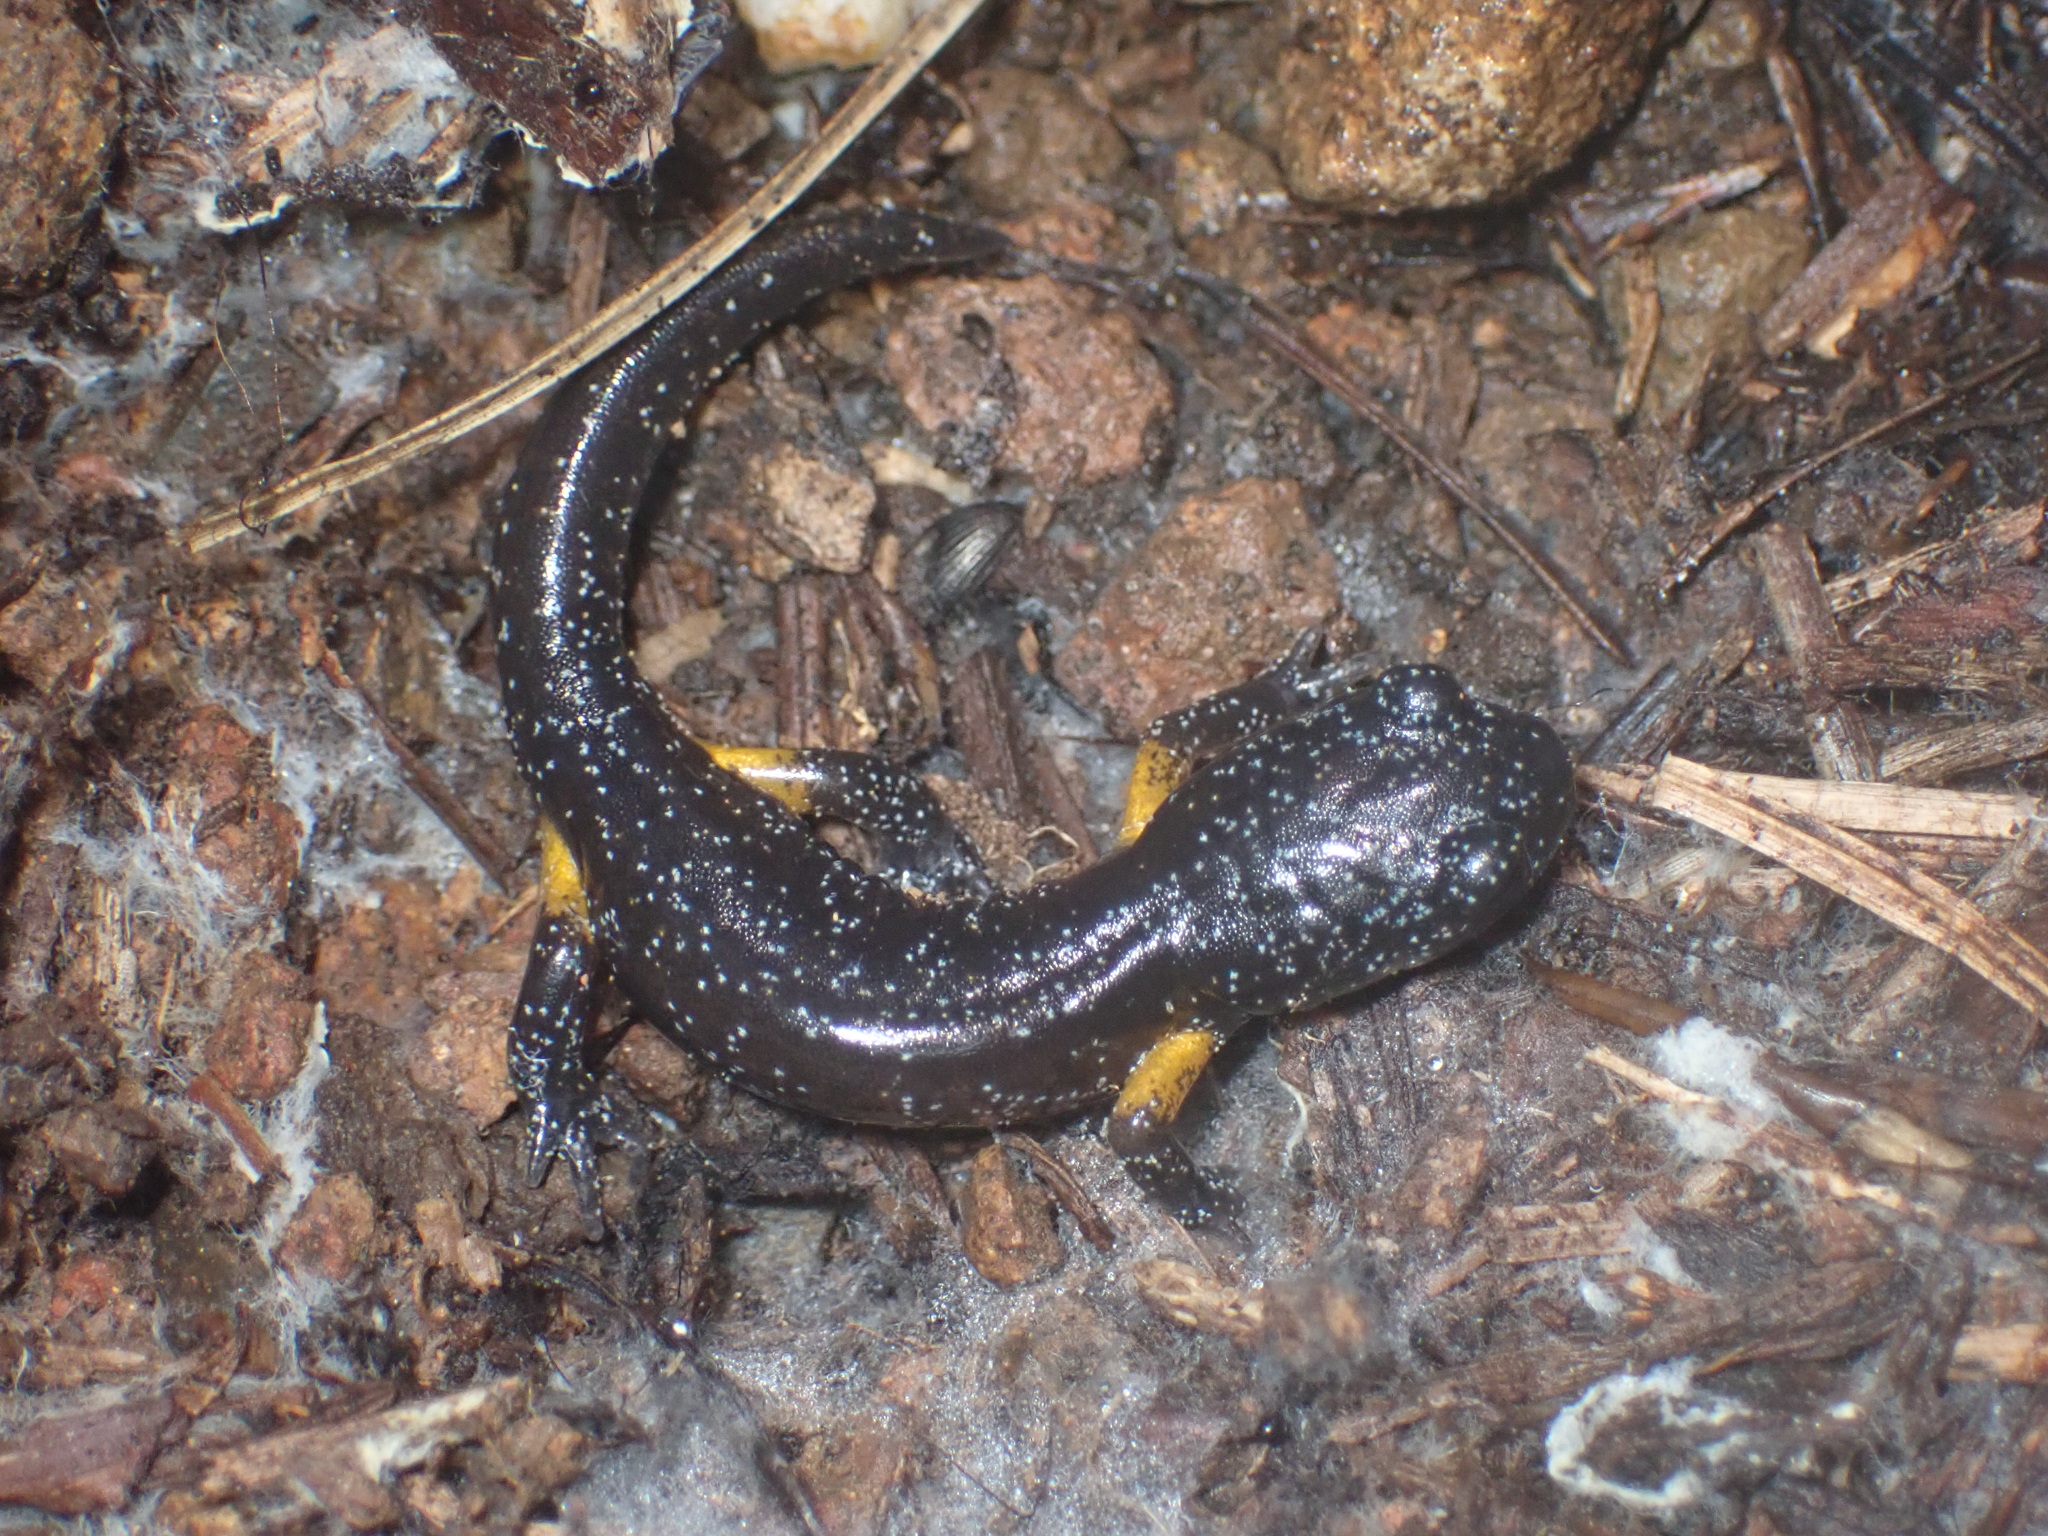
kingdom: Animalia
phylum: Chordata
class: Amphibia
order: Caudata
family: Plethodontidae
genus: Ensatina
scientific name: Ensatina eschscholtzii
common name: Ensatina
